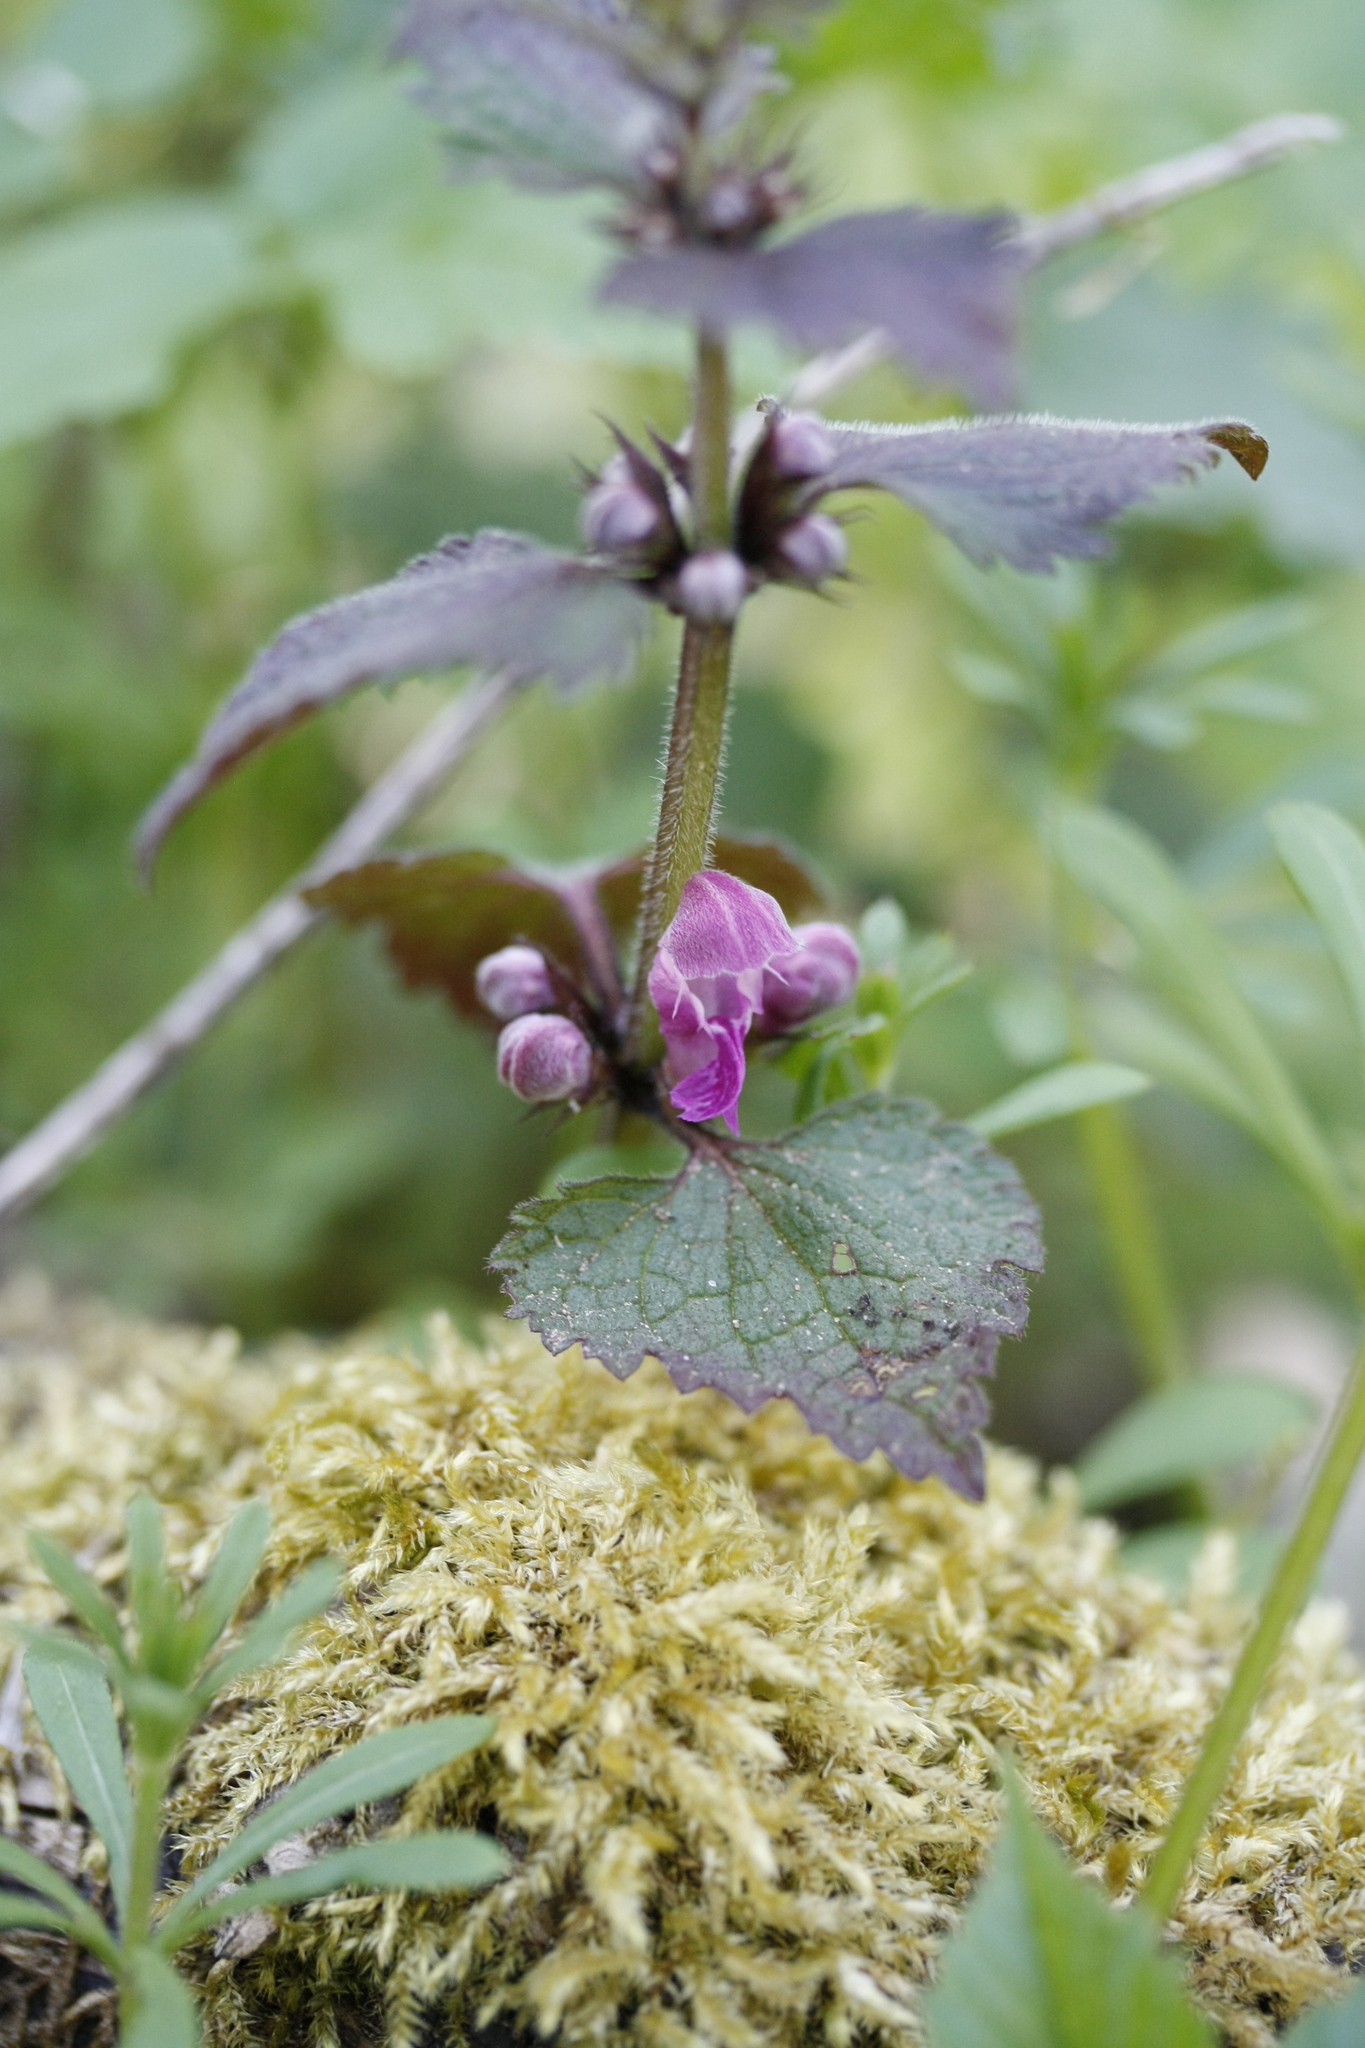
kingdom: Plantae
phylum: Tracheophyta
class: Magnoliopsida
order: Lamiales
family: Lamiaceae
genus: Lamium
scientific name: Lamium maculatum
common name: Spotted dead-nettle
